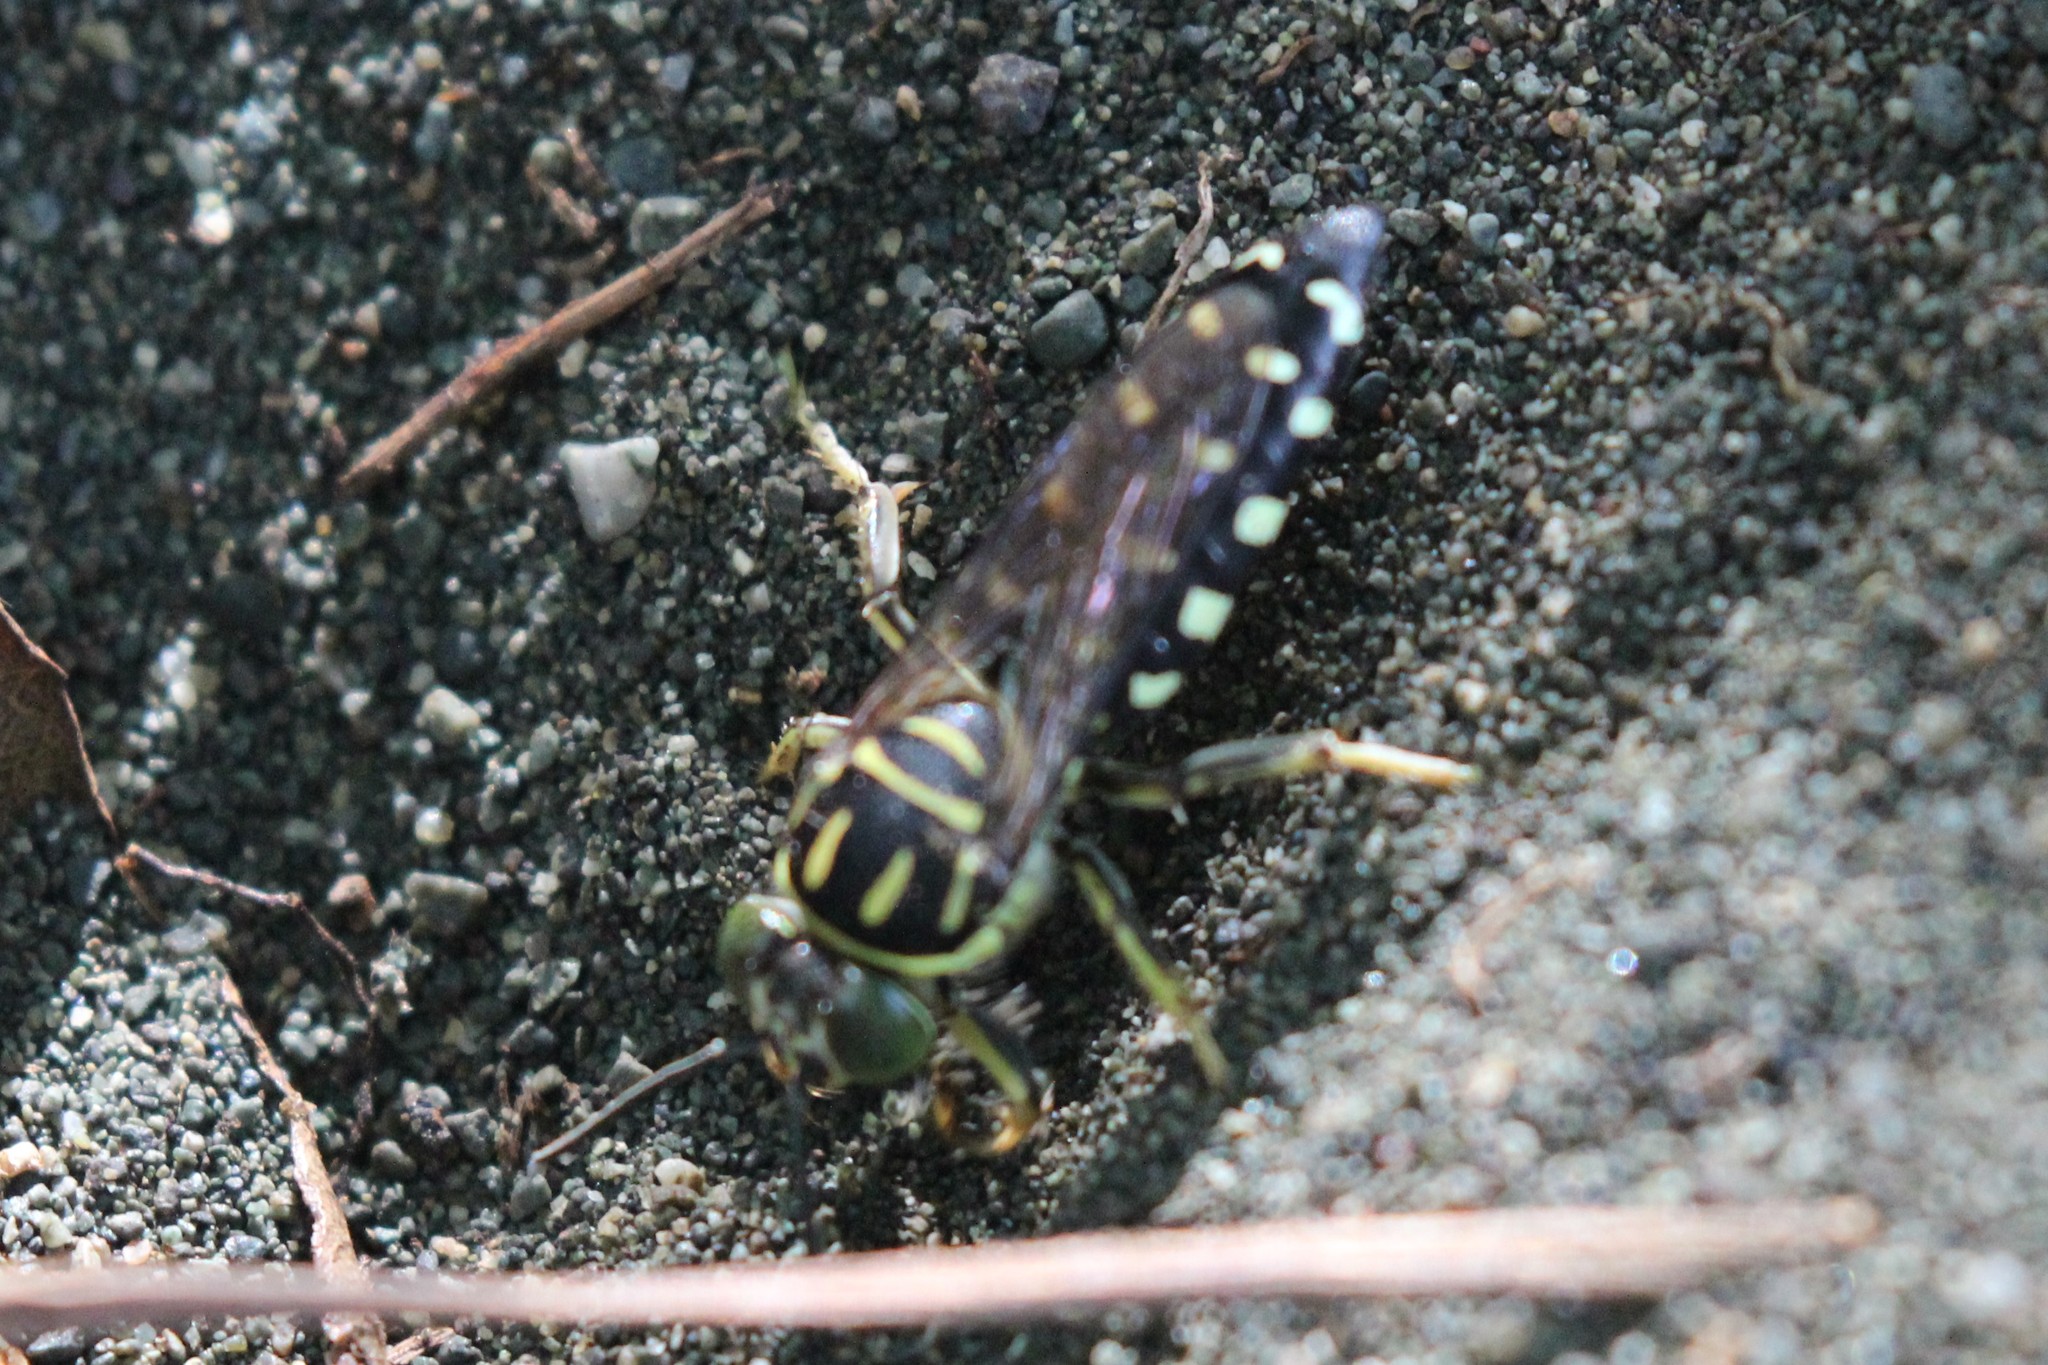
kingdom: Animalia
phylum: Arthropoda
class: Insecta
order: Hymenoptera
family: Crabronidae
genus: Stictia
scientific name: Stictia maculata
